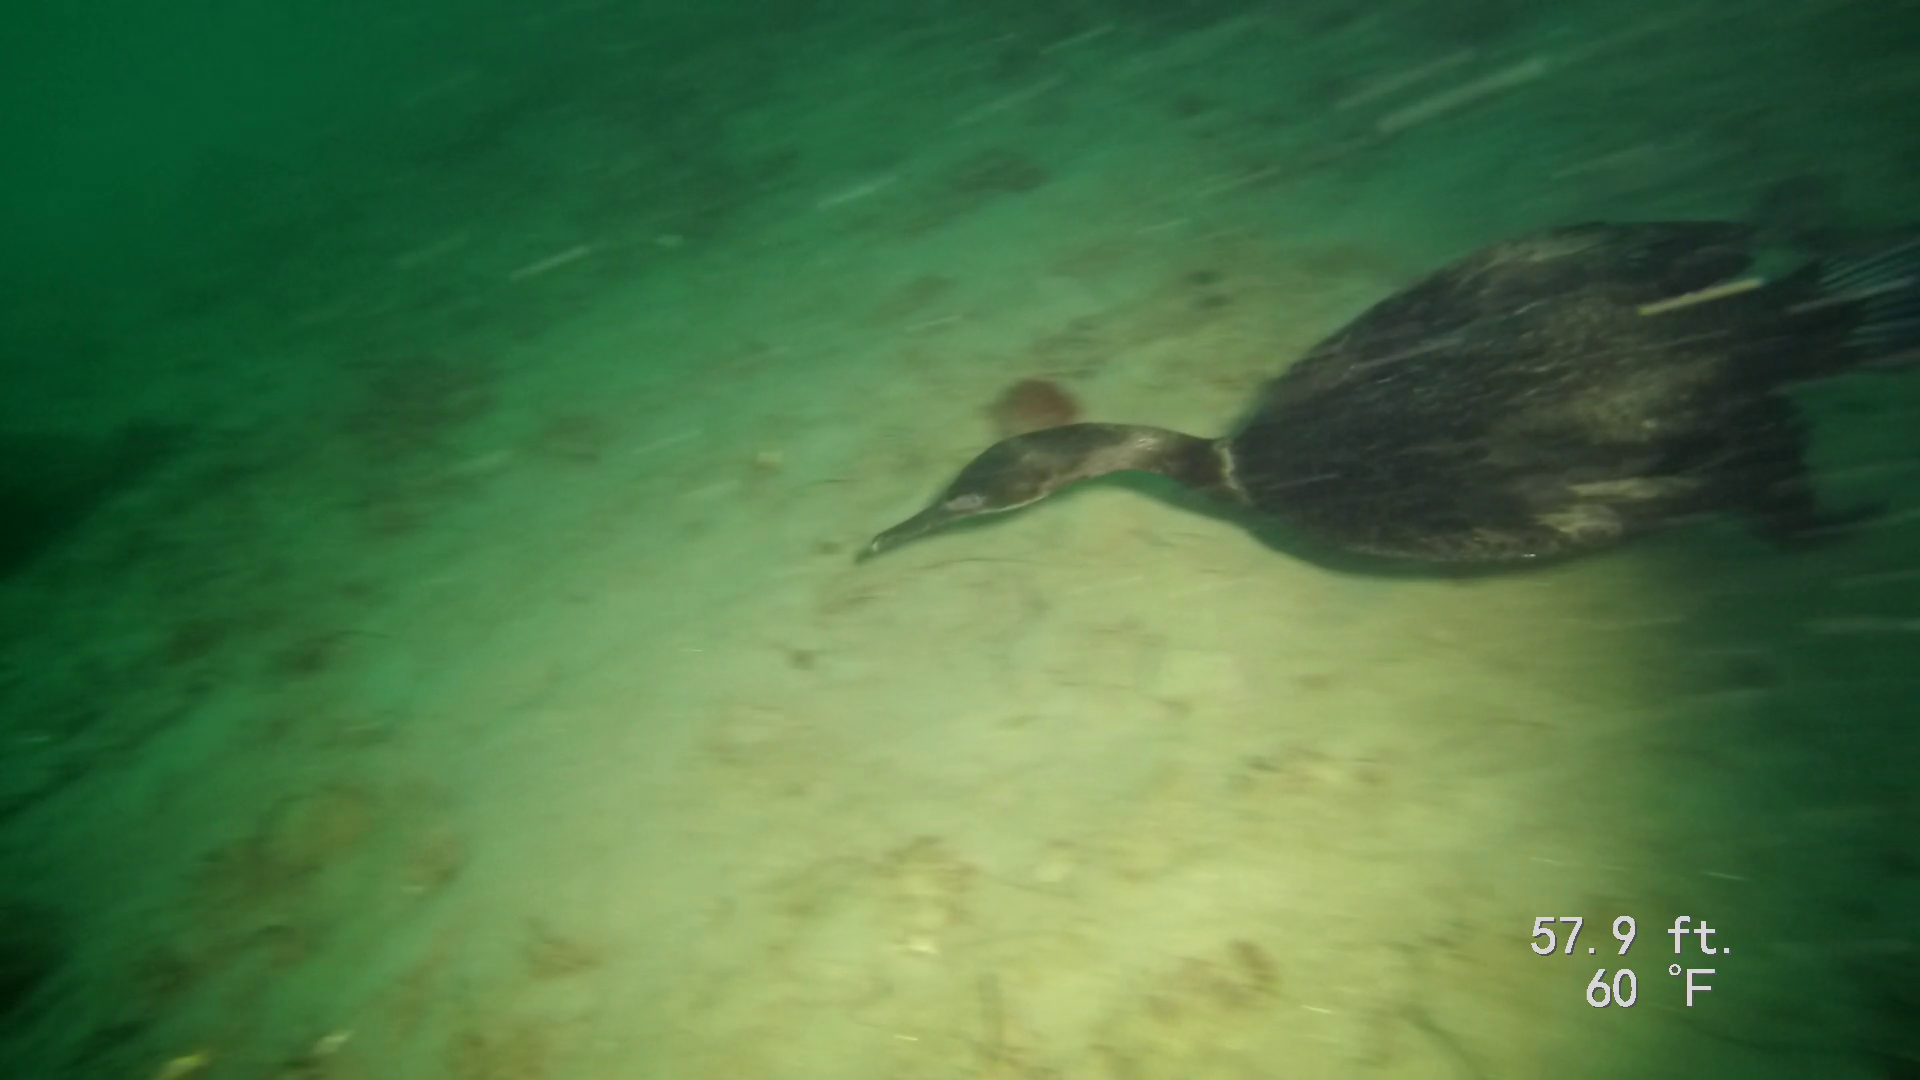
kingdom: Animalia
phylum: Chordata
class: Aves
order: Suliformes
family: Phalacrocoracidae
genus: Urile
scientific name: Urile penicillatus
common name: Brandt's cormorant
